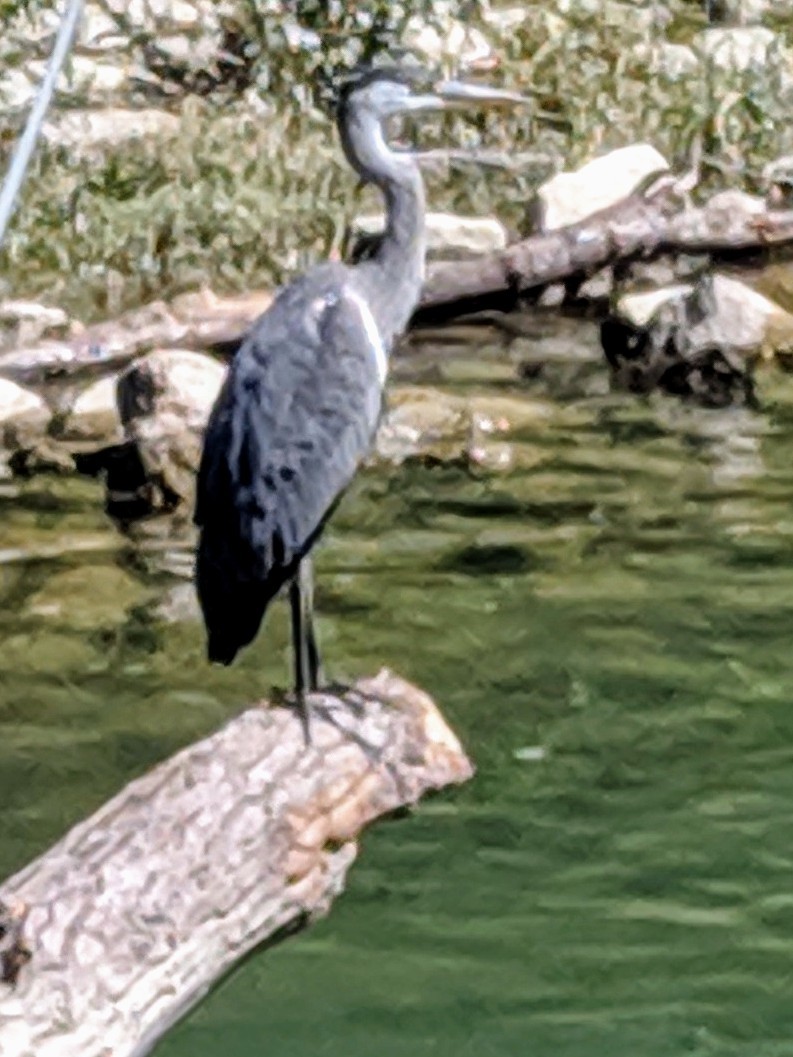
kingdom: Animalia
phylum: Chordata
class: Aves
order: Pelecaniformes
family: Ardeidae
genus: Ardea
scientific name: Ardea cinerea
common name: Grey heron
